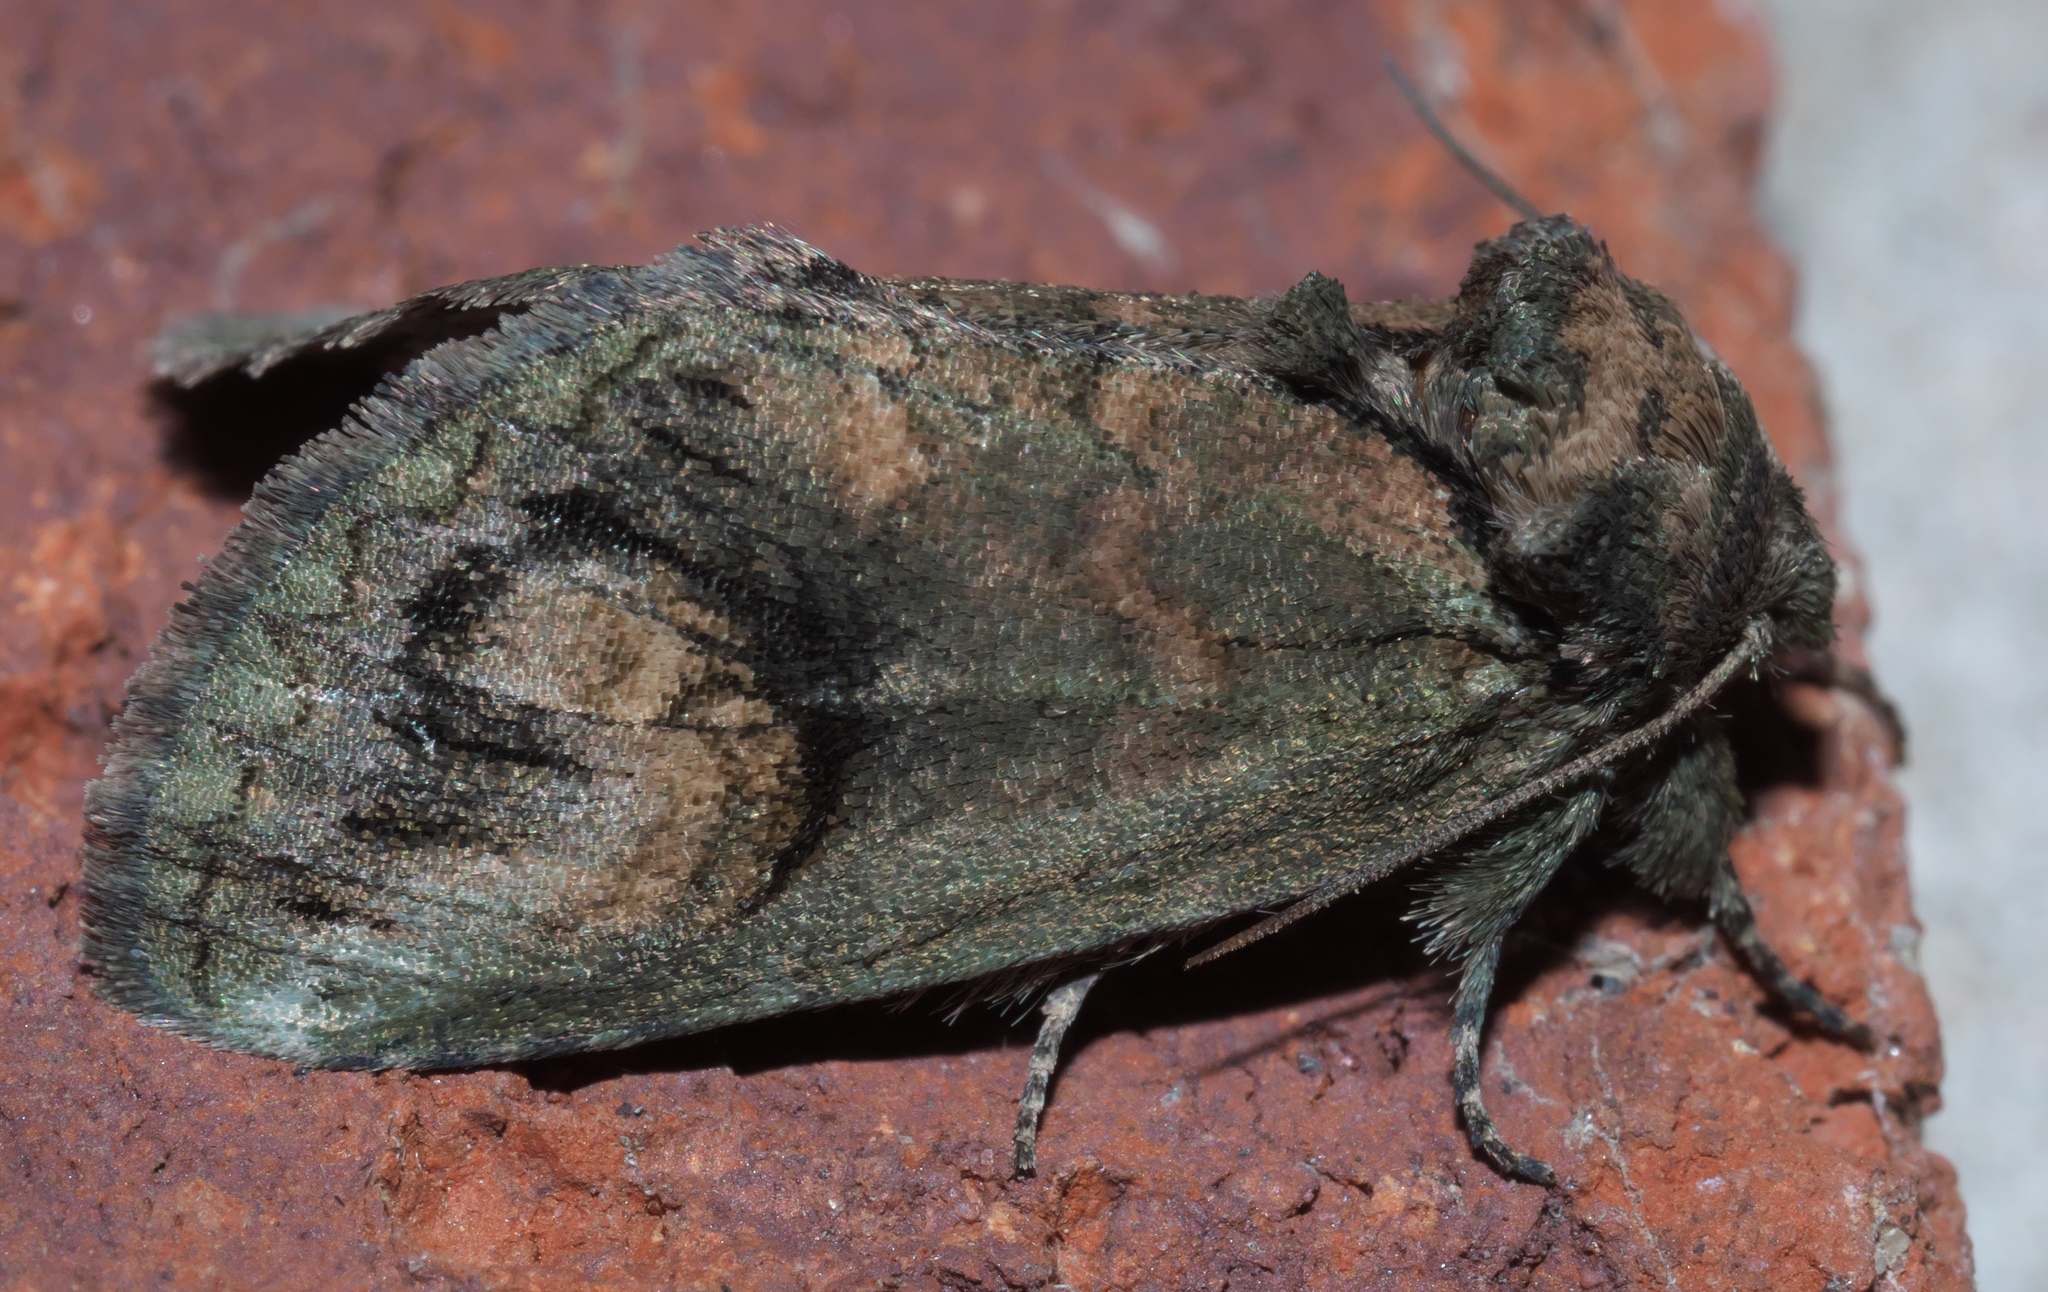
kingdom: Animalia
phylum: Arthropoda
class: Insecta
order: Lepidoptera
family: Notodontidae
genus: Rifargia
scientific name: Rifargia
